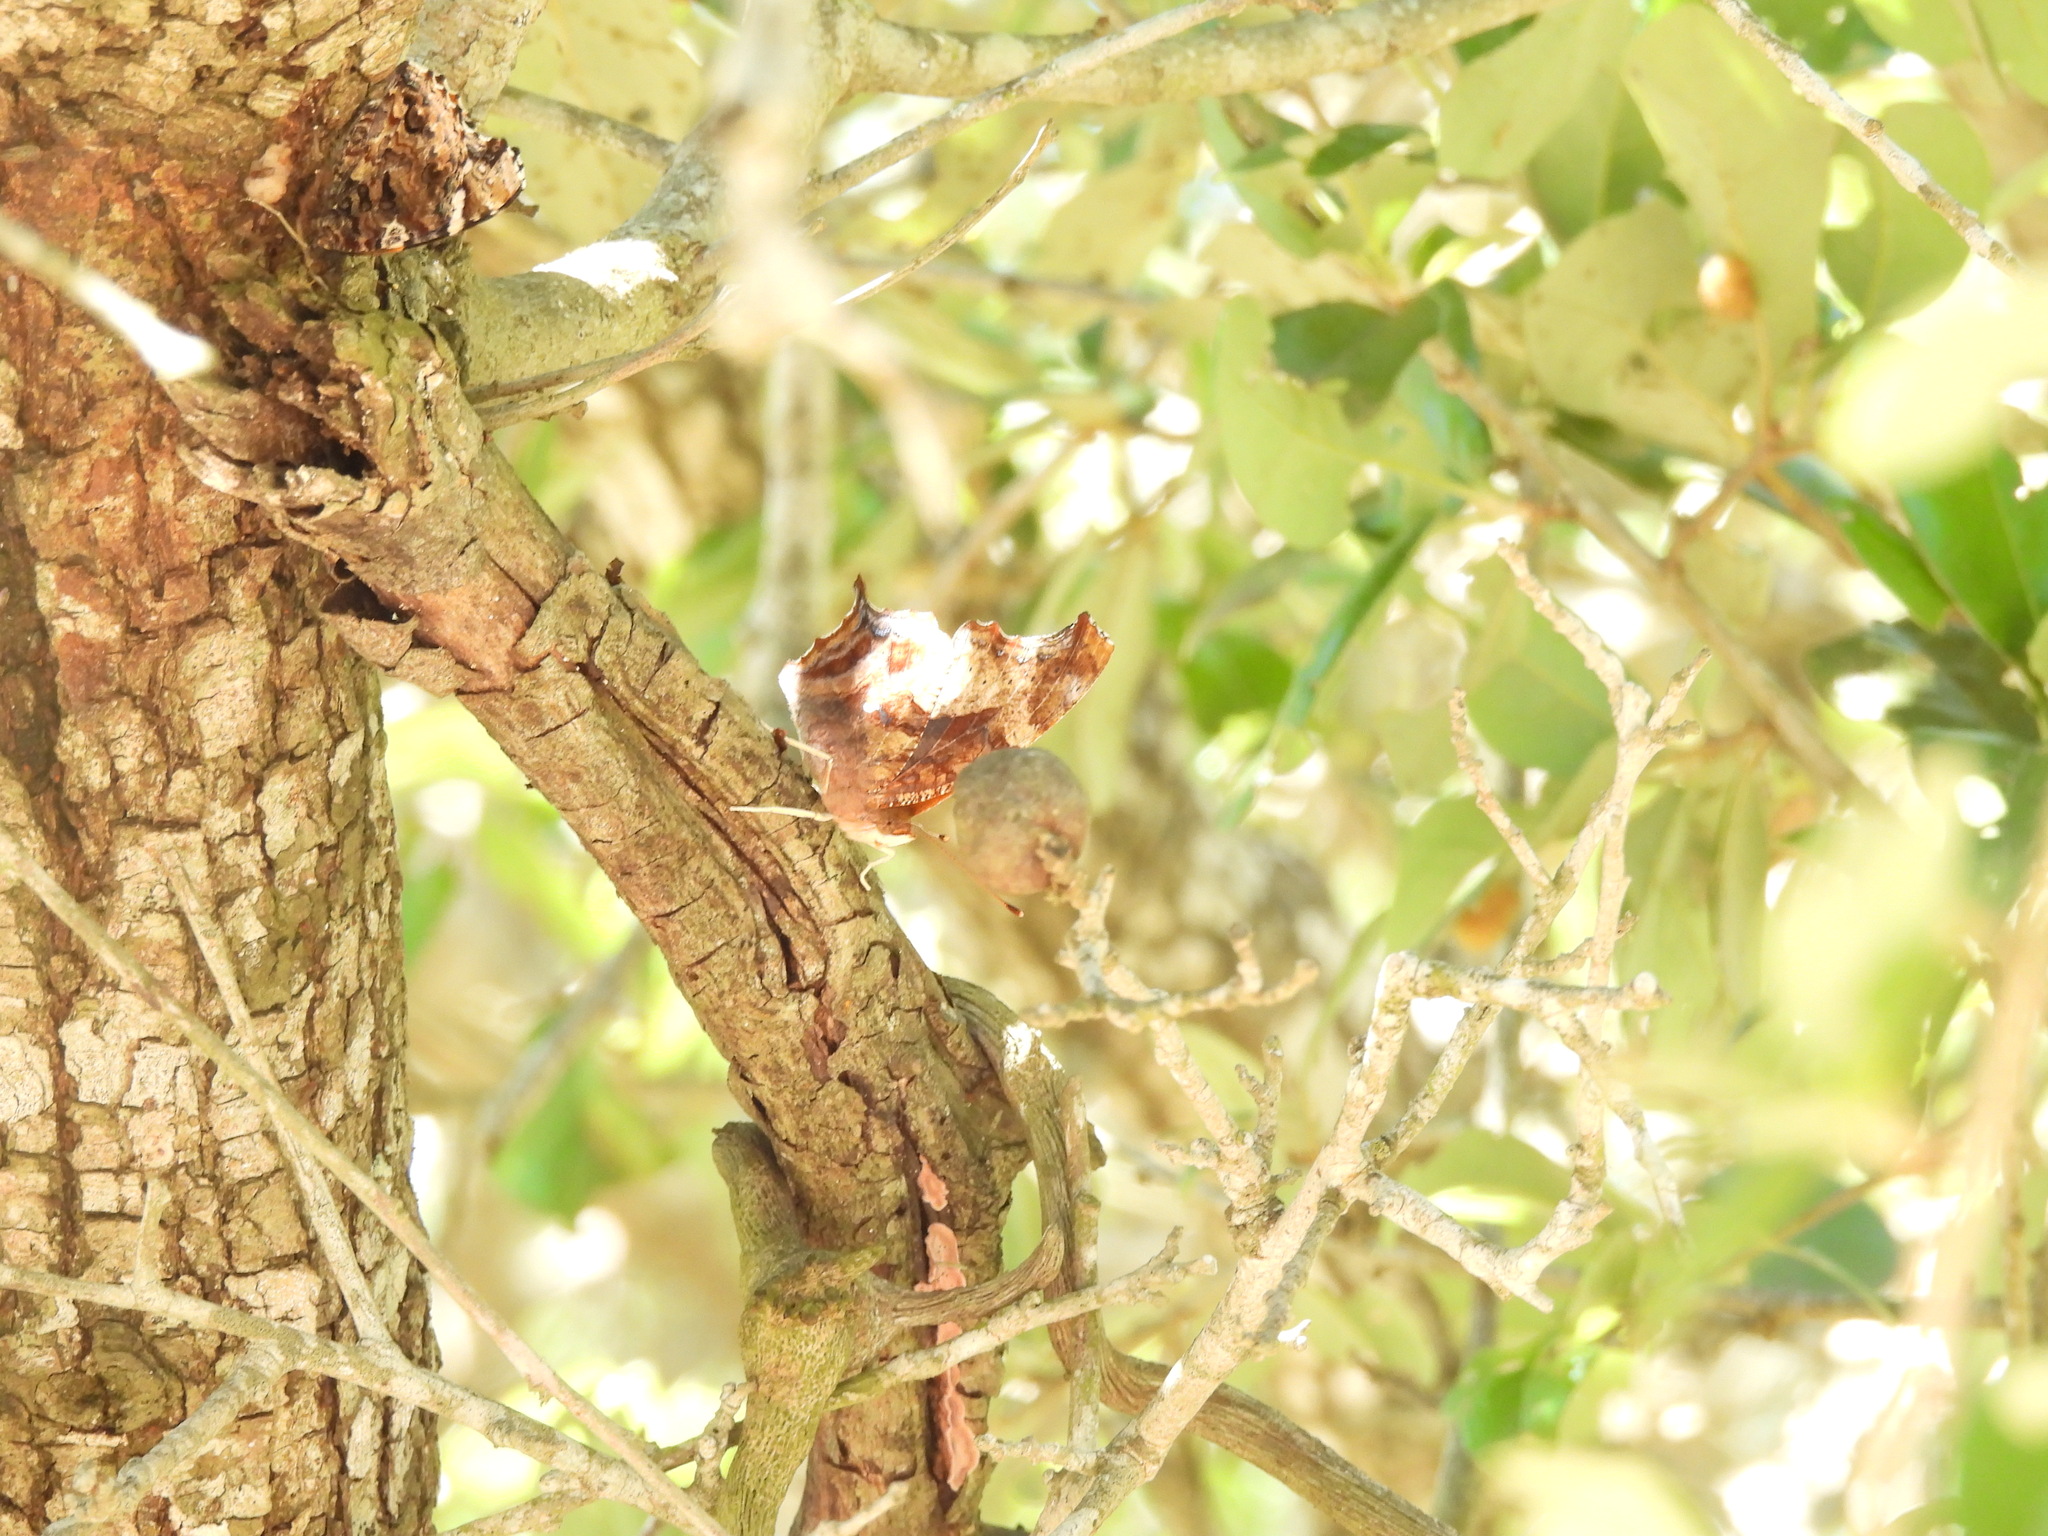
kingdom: Animalia
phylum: Arthropoda
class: Insecta
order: Lepidoptera
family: Nymphalidae
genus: Polygonia
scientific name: Polygonia interrogationis
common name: Question mark
